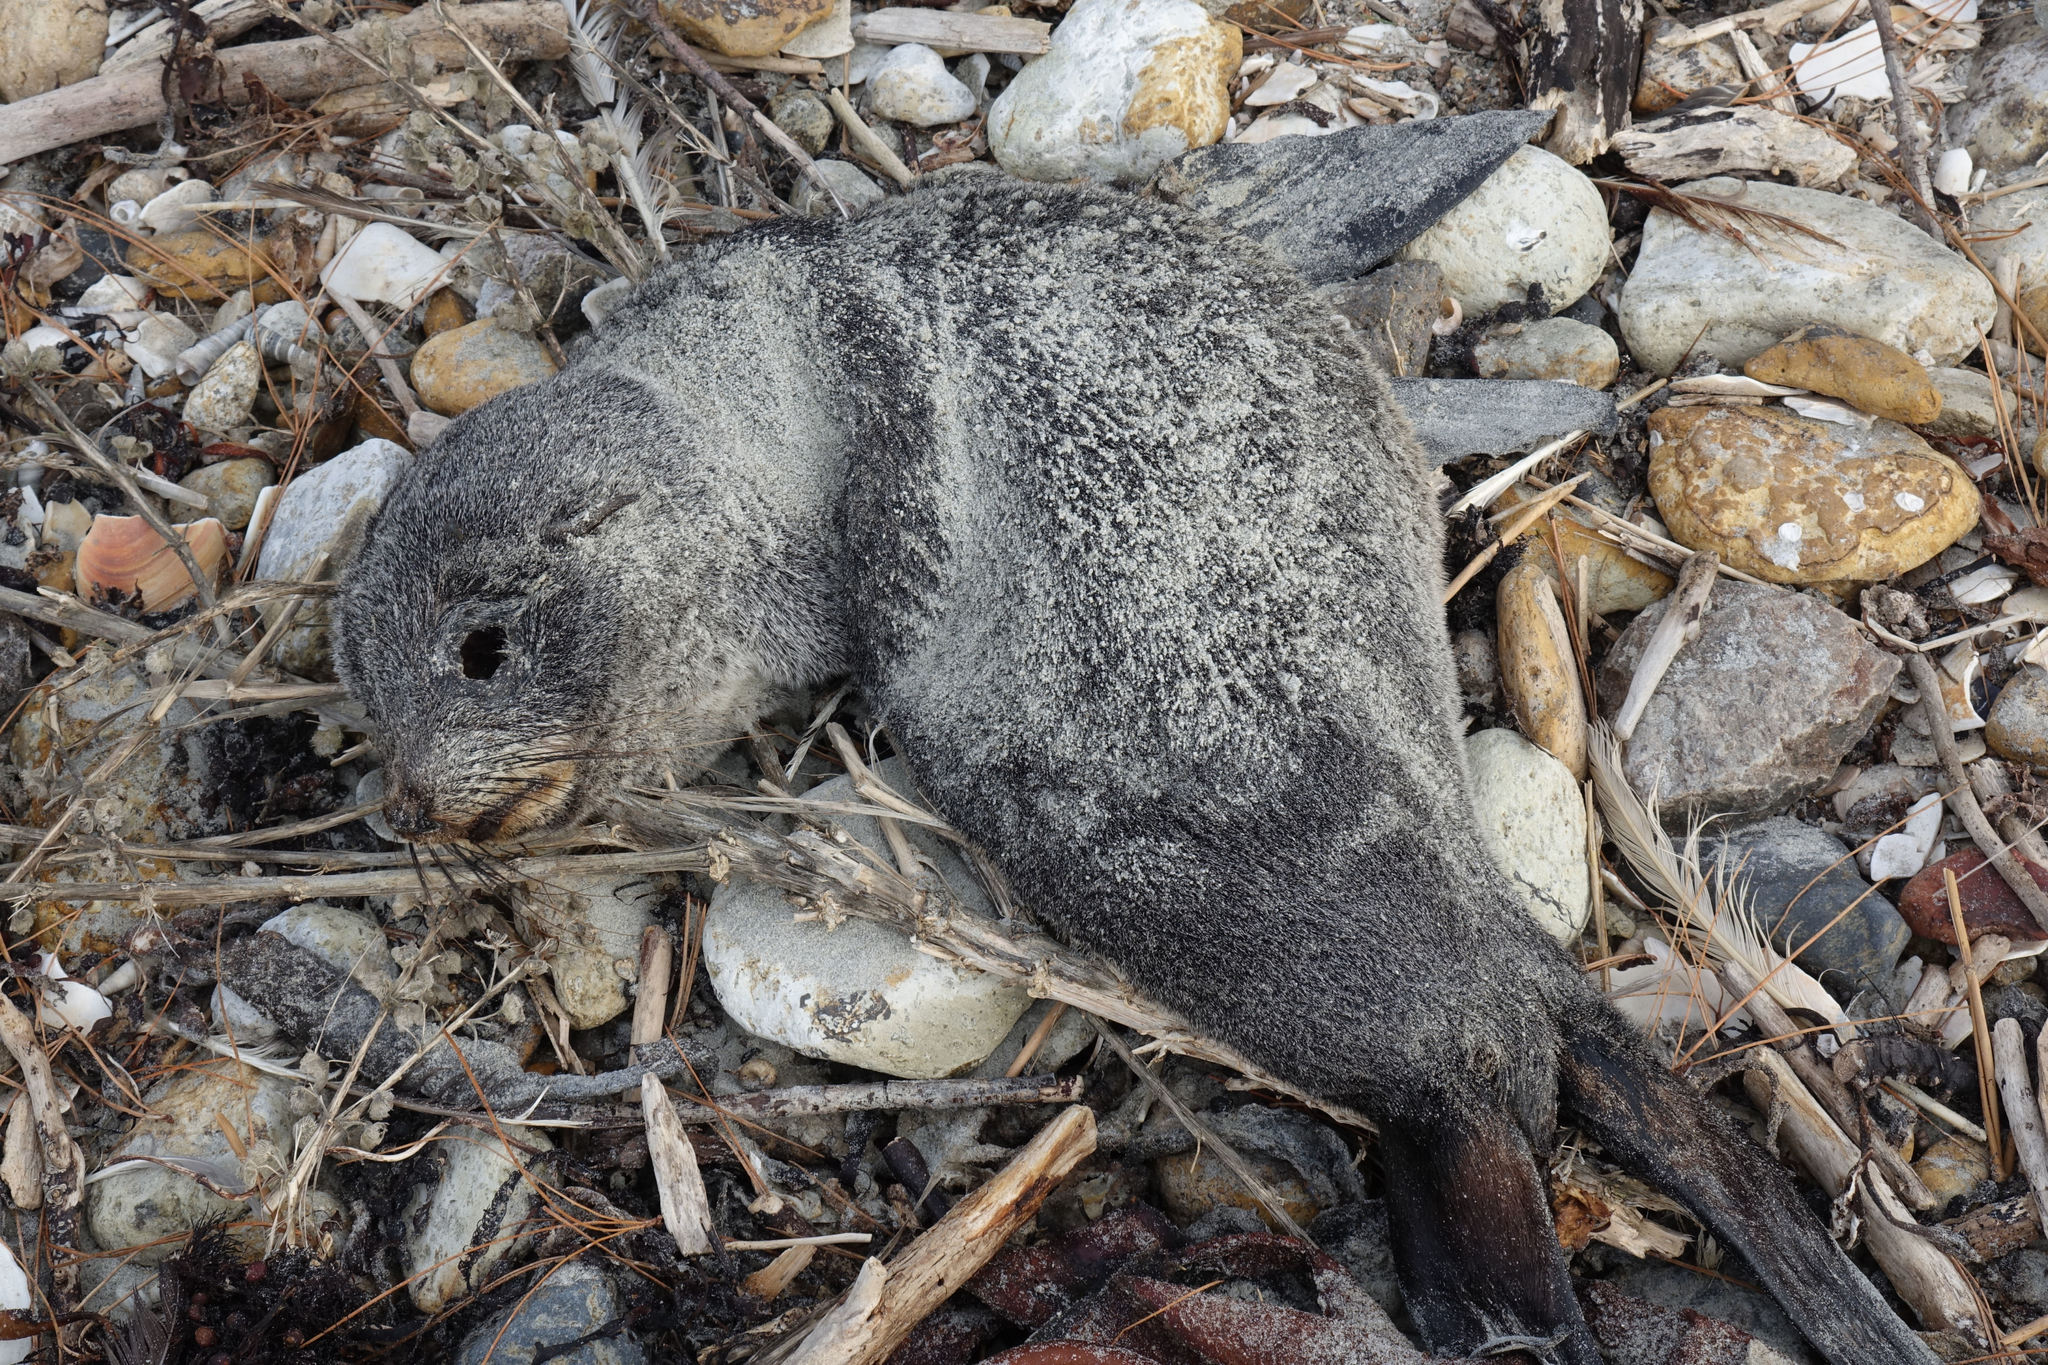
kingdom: Animalia
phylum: Chordata
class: Mammalia
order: Carnivora
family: Otariidae
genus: Arctocephalus
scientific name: Arctocephalus forsteri
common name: New zealand fur seal
